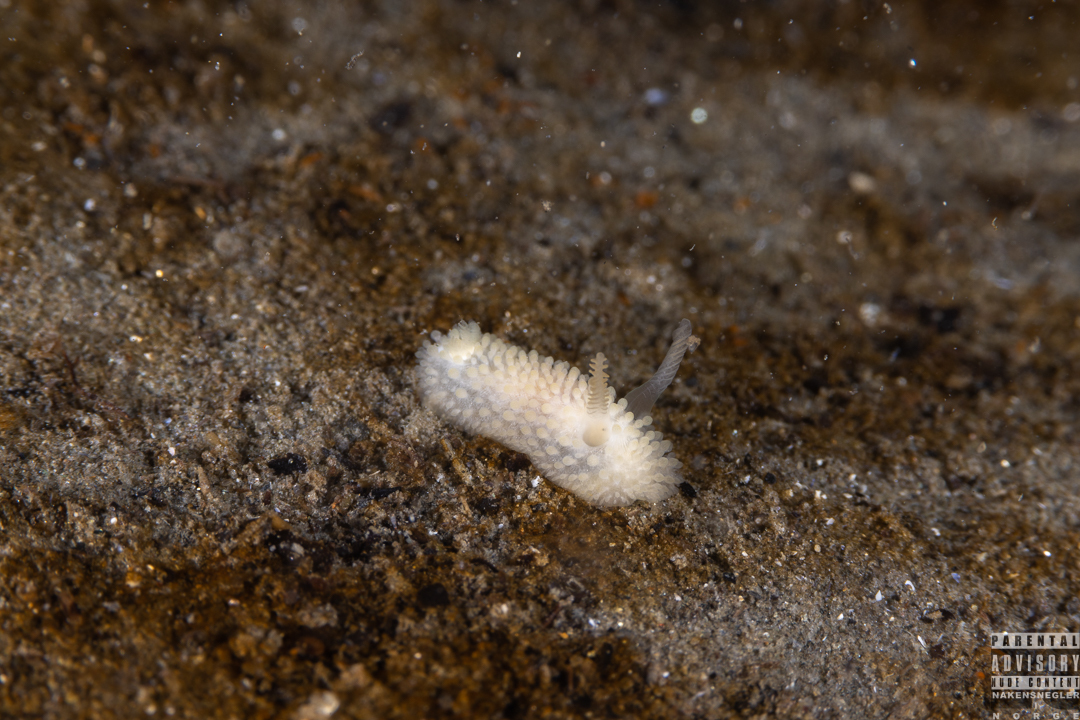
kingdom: Animalia
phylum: Mollusca
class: Gastropoda
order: Nudibranchia
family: Onchidorididae
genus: Onchidoris
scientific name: Onchidoris muricata
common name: Rough doris
